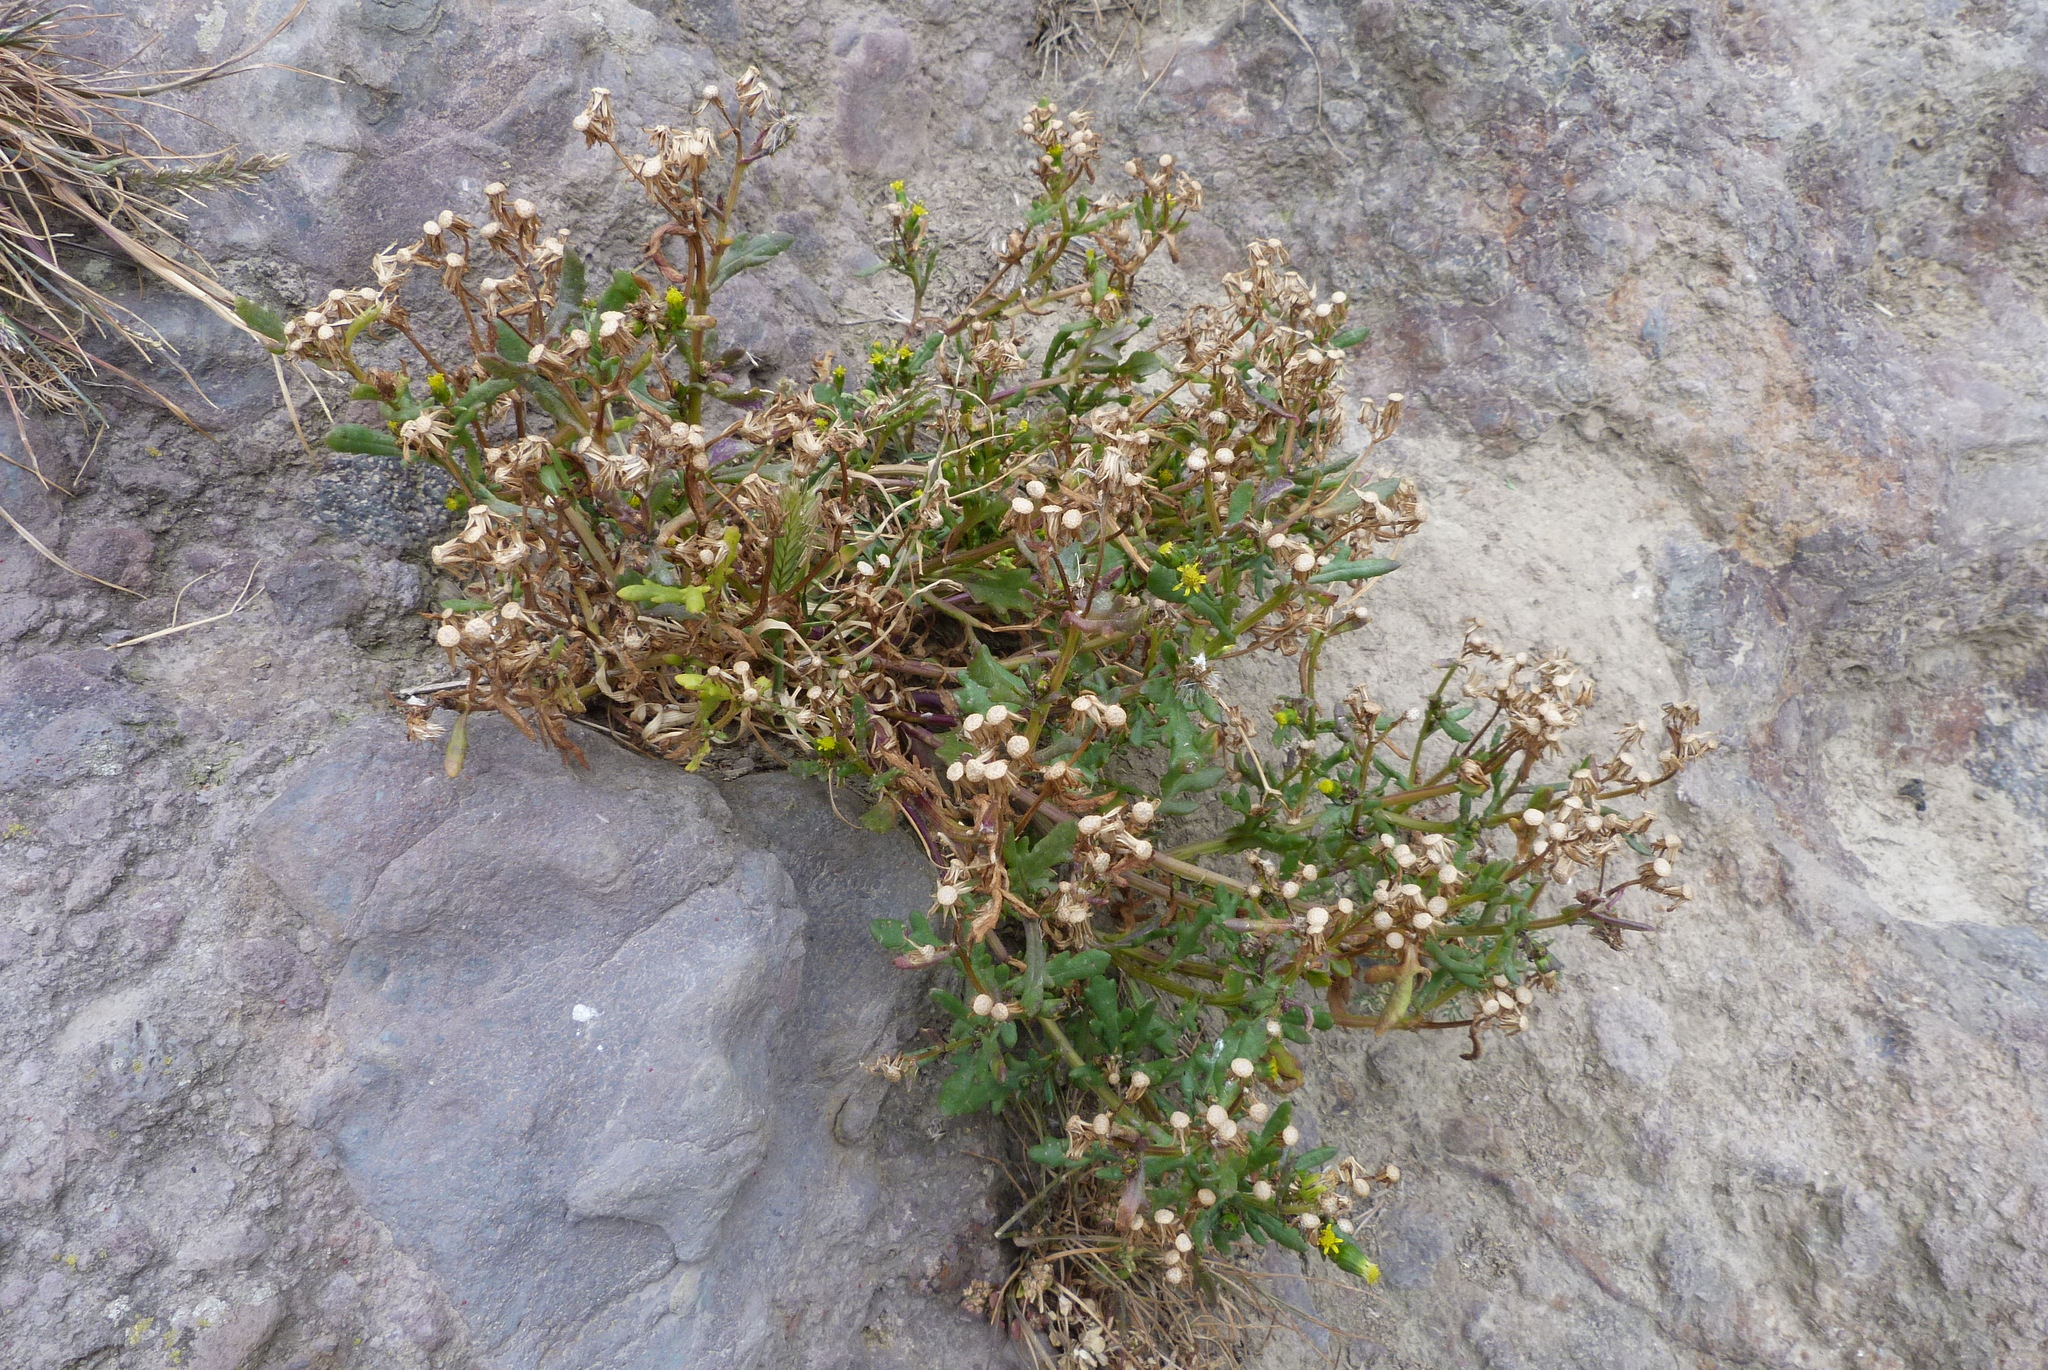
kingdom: Plantae
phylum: Tracheophyta
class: Magnoliopsida
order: Asterales
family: Asteraceae
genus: Senecio
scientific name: Senecio lautus
